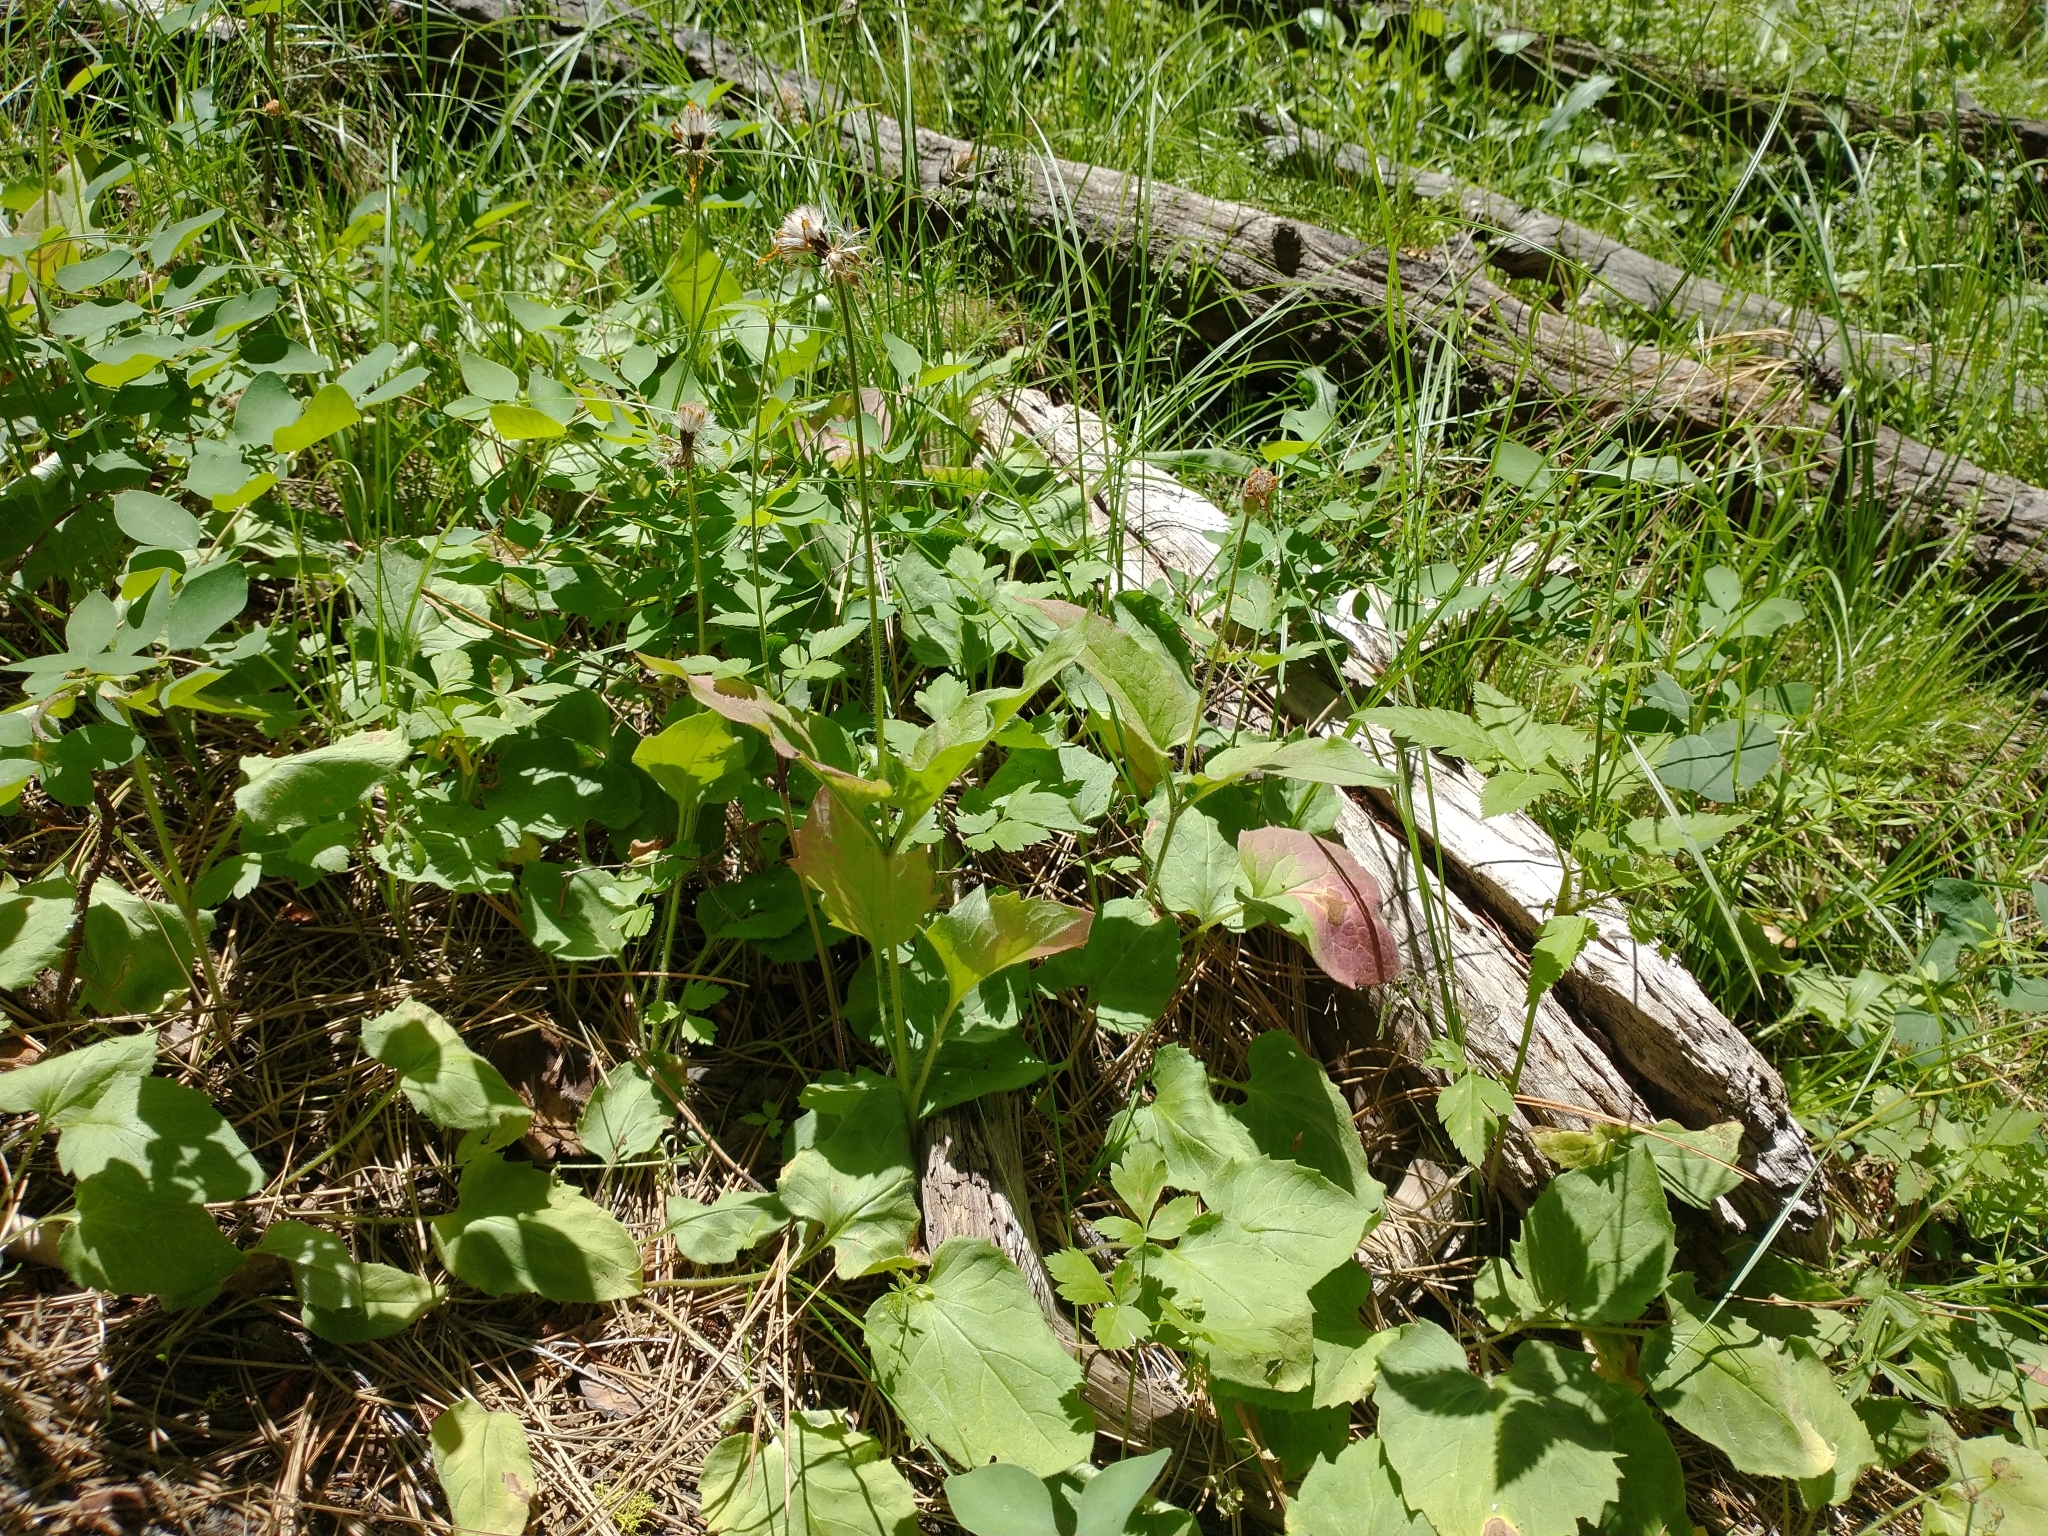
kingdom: Plantae
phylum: Tracheophyta
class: Magnoliopsida
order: Asterales
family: Asteraceae
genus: Arnica
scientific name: Arnica cordifolia
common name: Heart-leaf arnica
